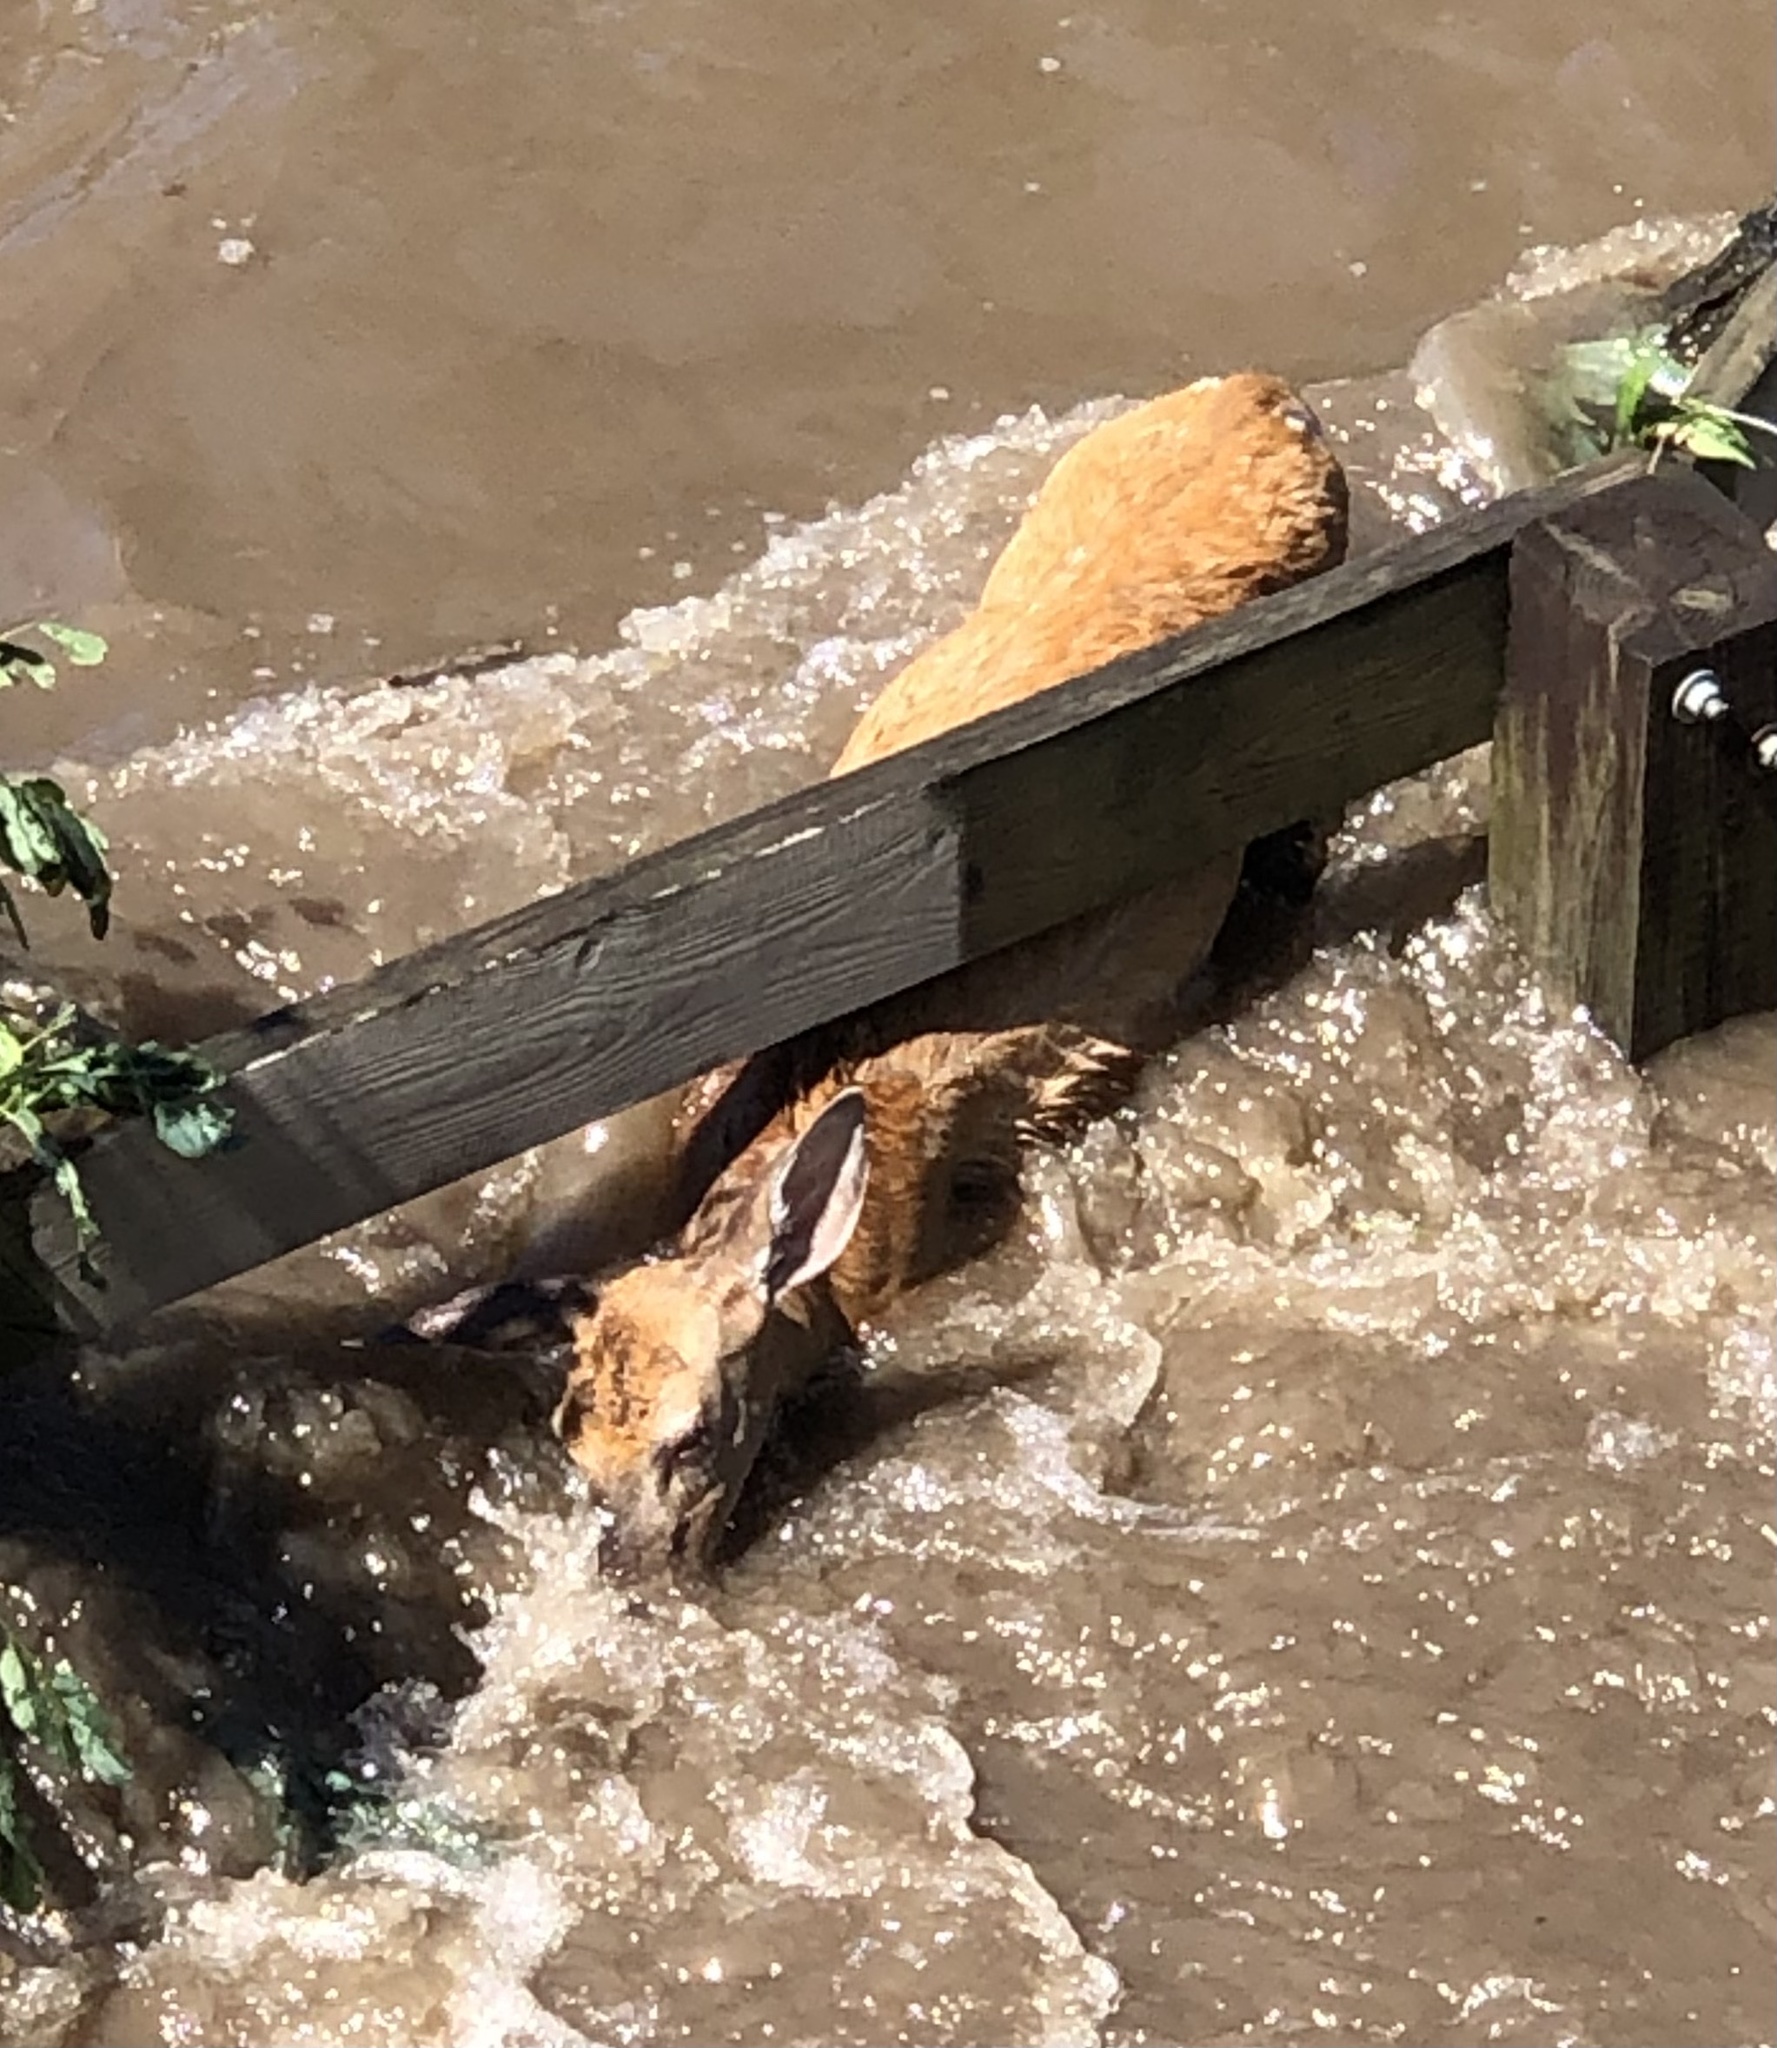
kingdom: Animalia
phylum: Chordata
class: Mammalia
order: Artiodactyla
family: Cervidae
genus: Odocoileus
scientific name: Odocoileus virginianus
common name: White-tailed deer
